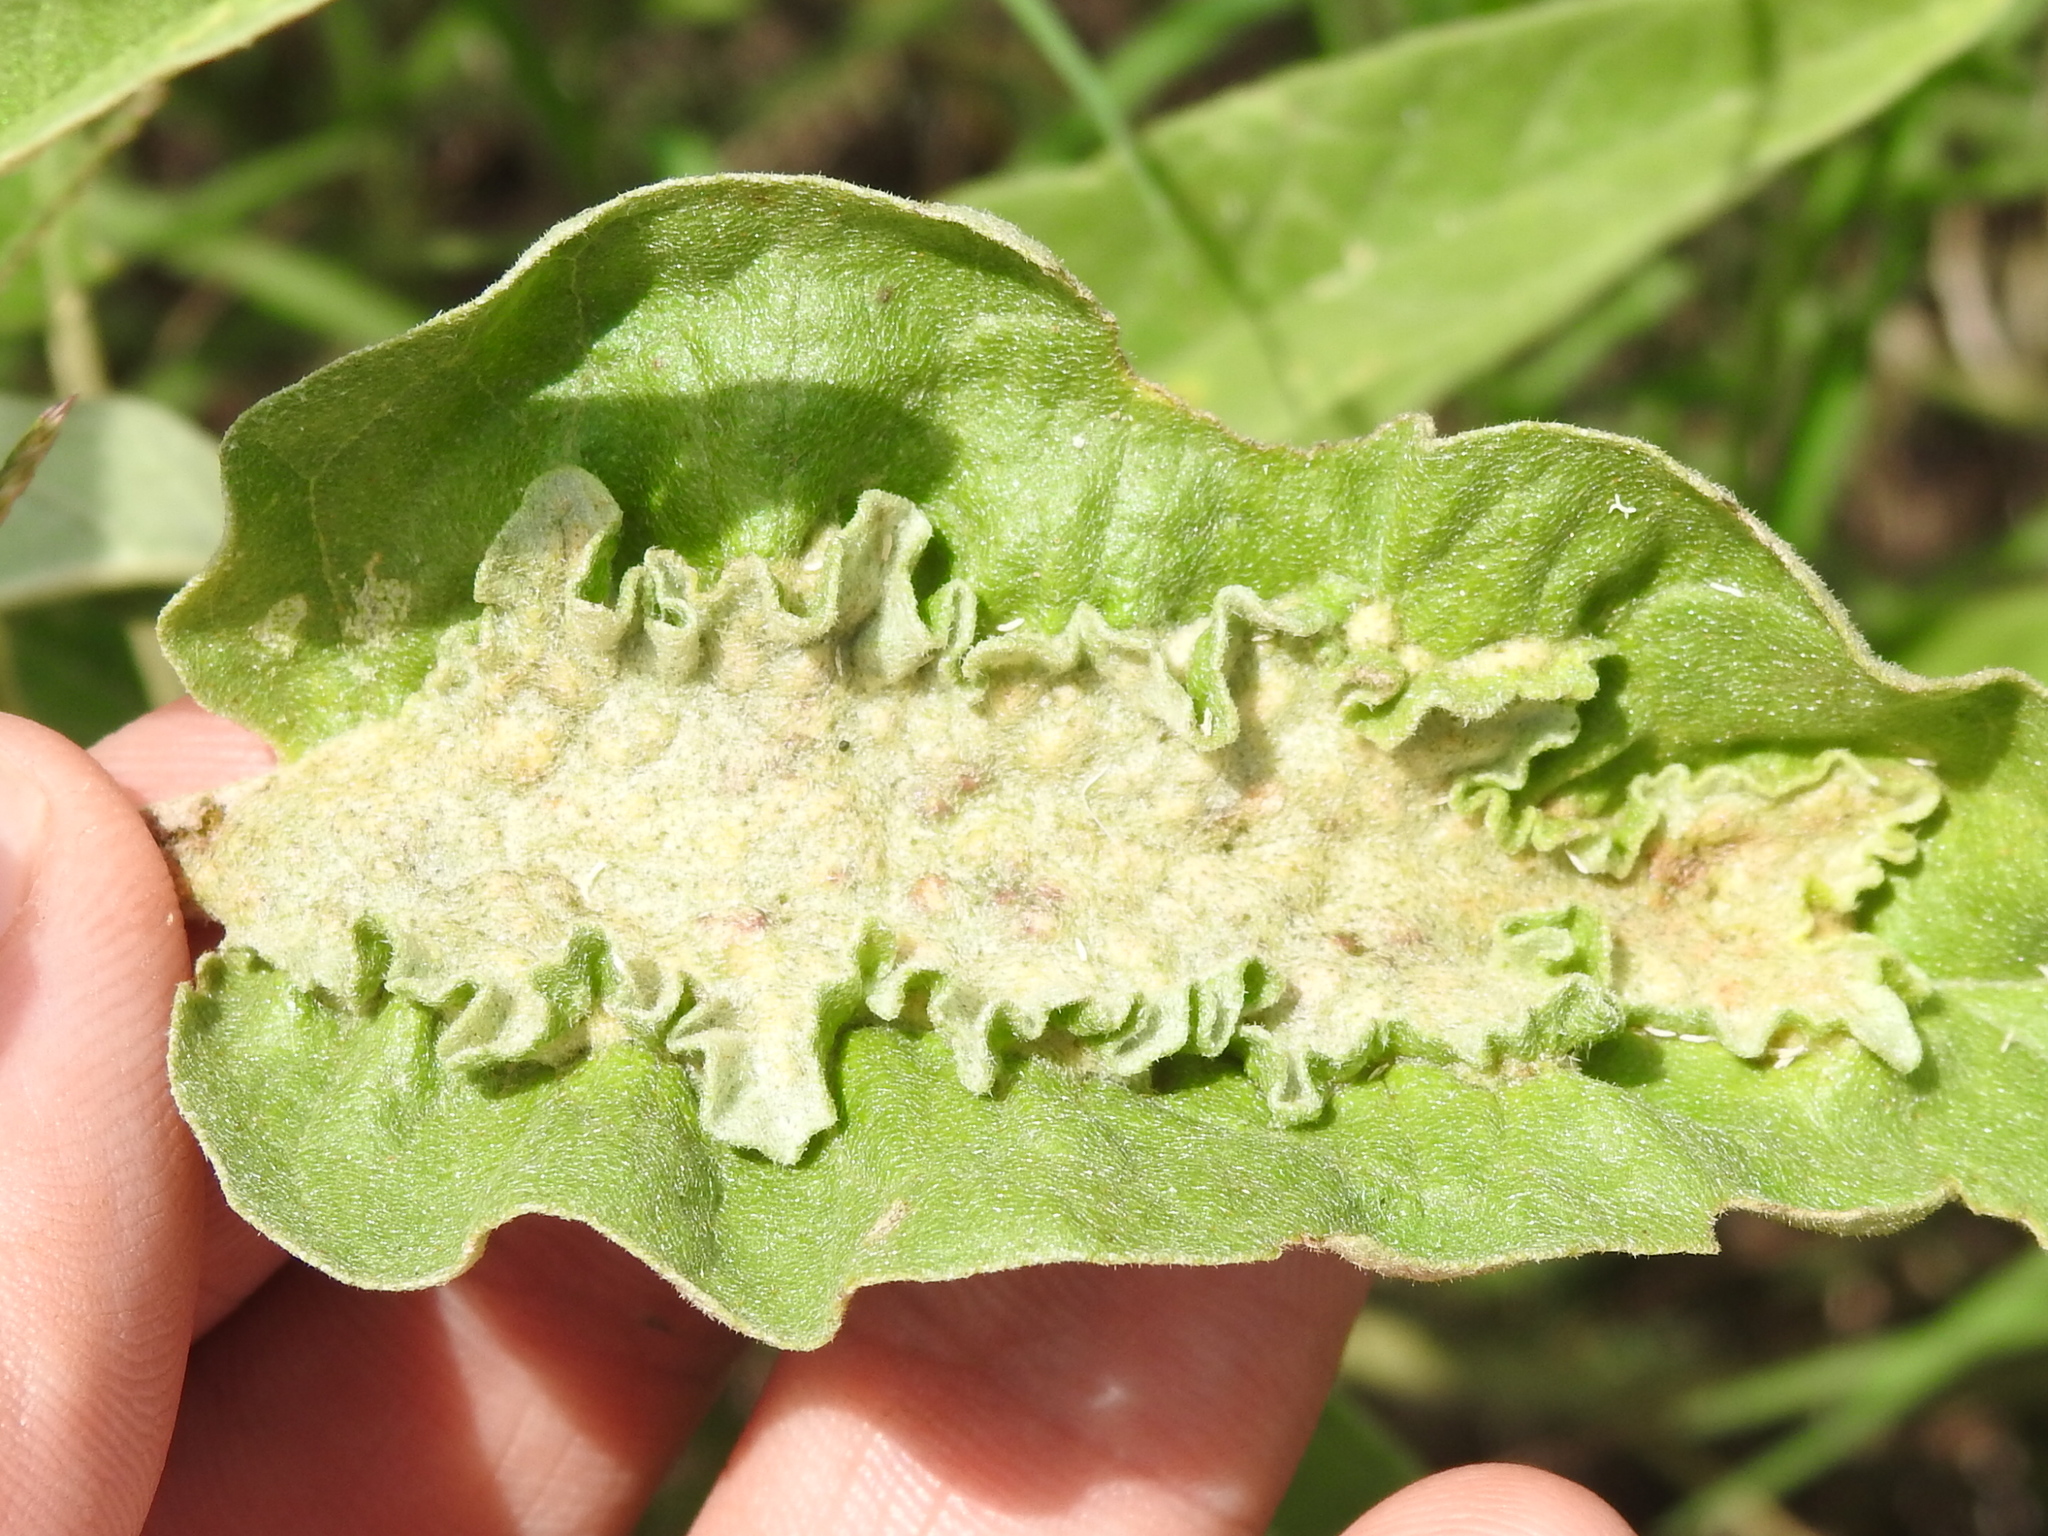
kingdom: Animalia
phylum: Nematoda
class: Chromadorea
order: Rhabditida
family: Anguinidae
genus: Ditylenchus
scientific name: Ditylenchus
